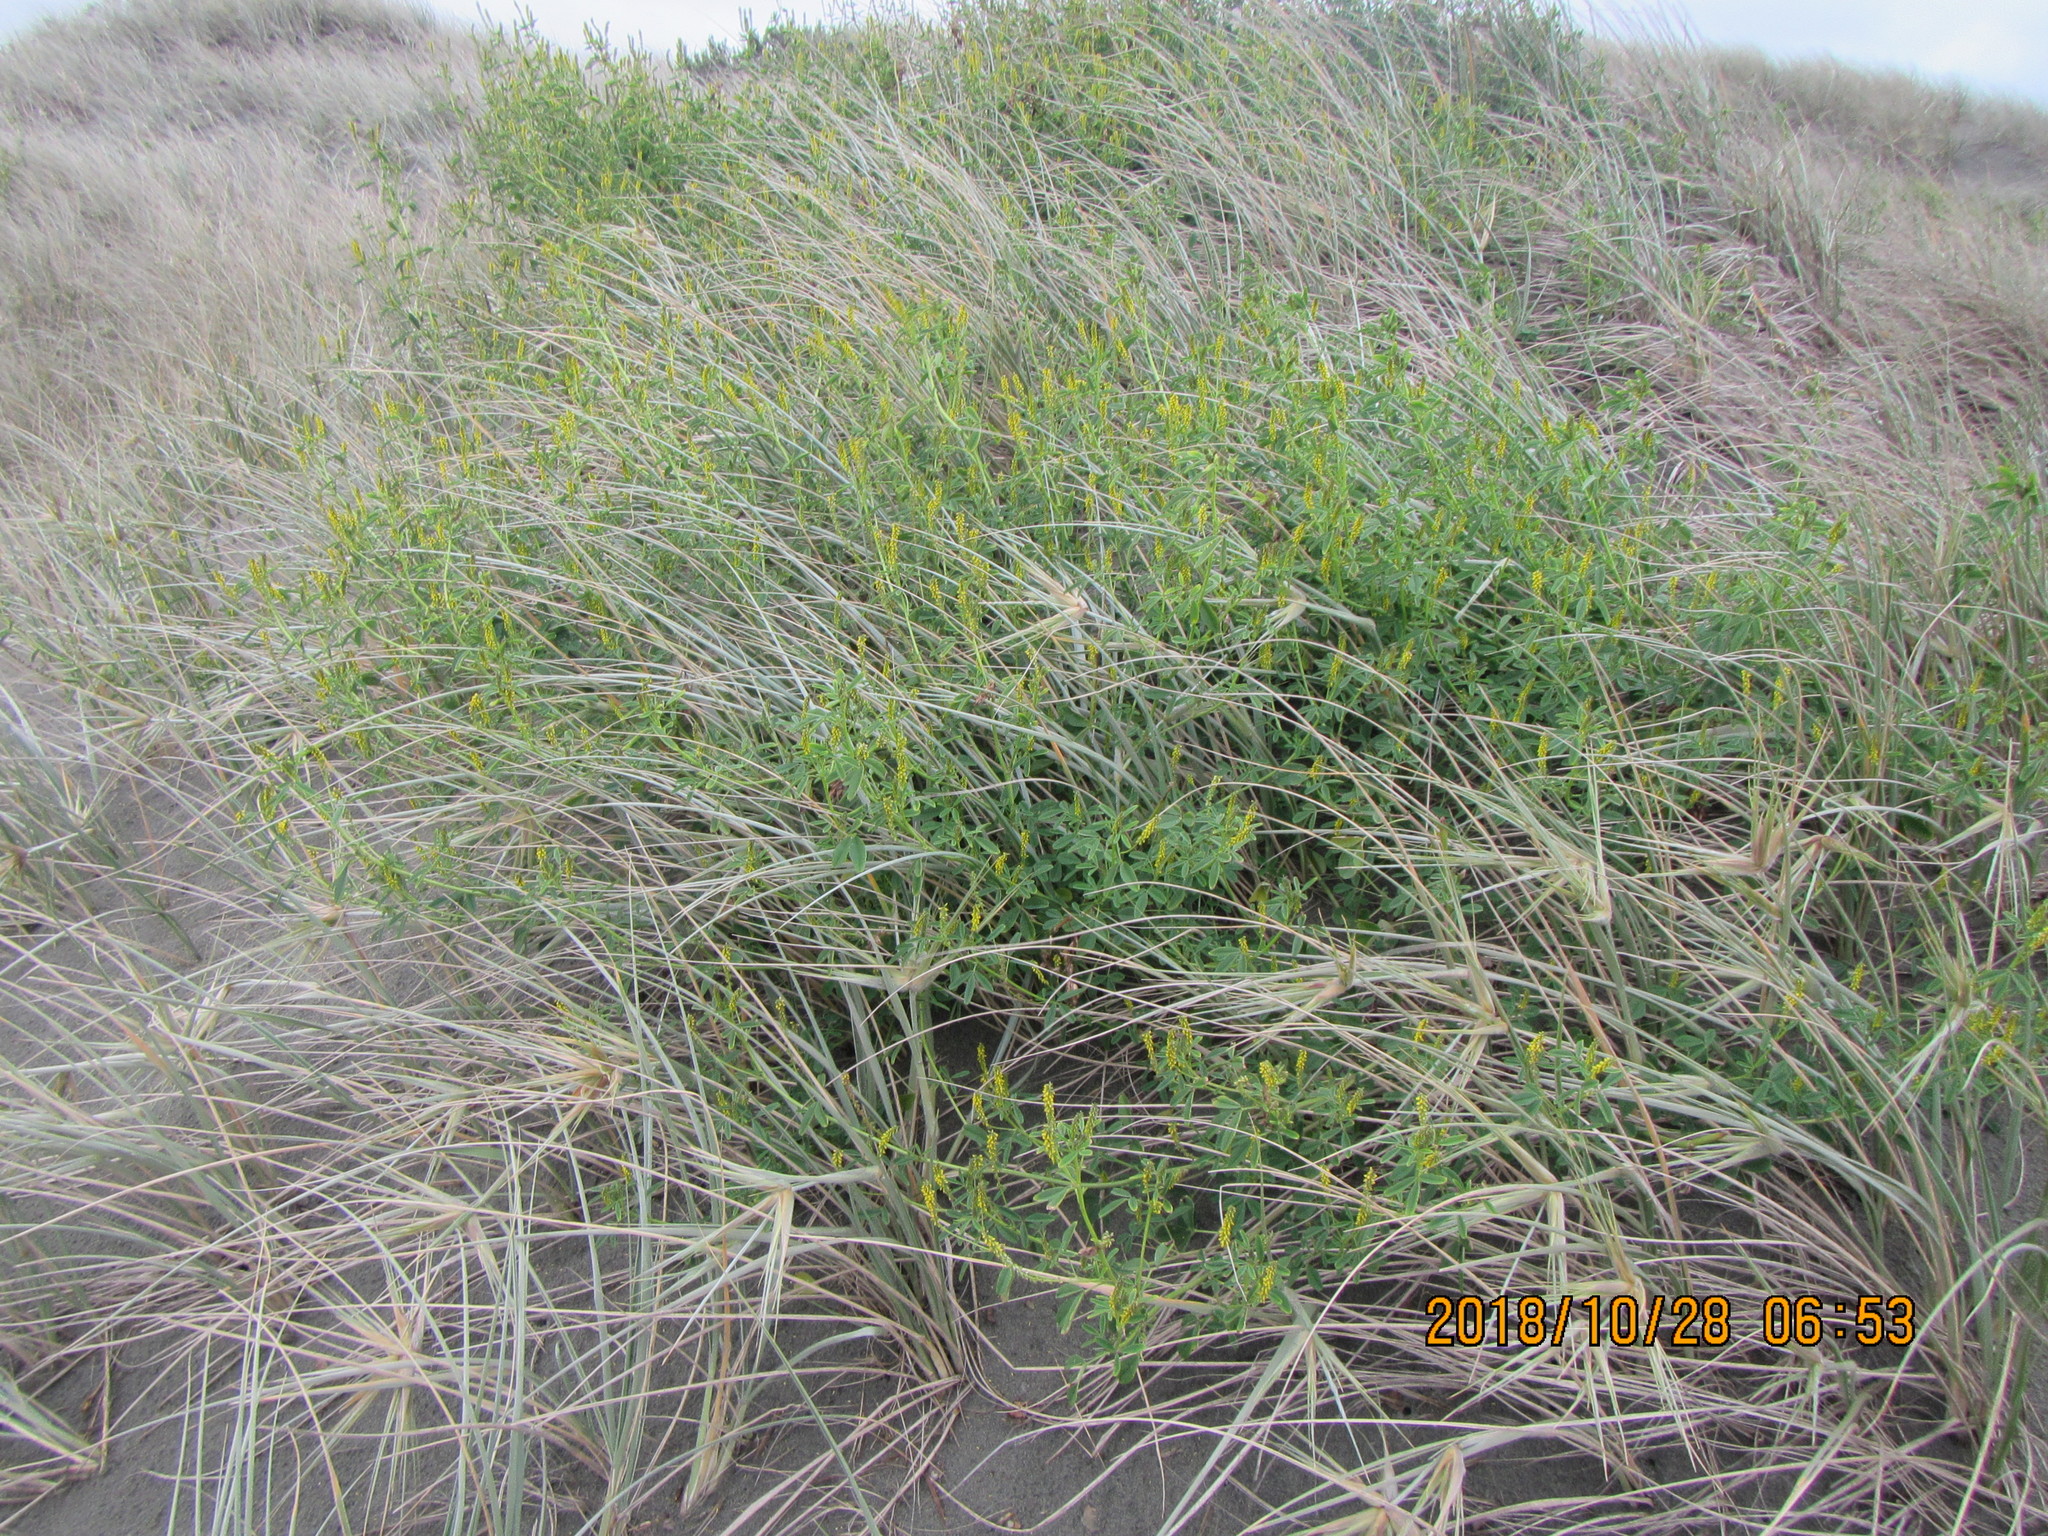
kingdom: Plantae
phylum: Tracheophyta
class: Magnoliopsida
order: Fabales
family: Fabaceae
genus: Melilotus
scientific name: Melilotus indicus
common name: Small melilot
